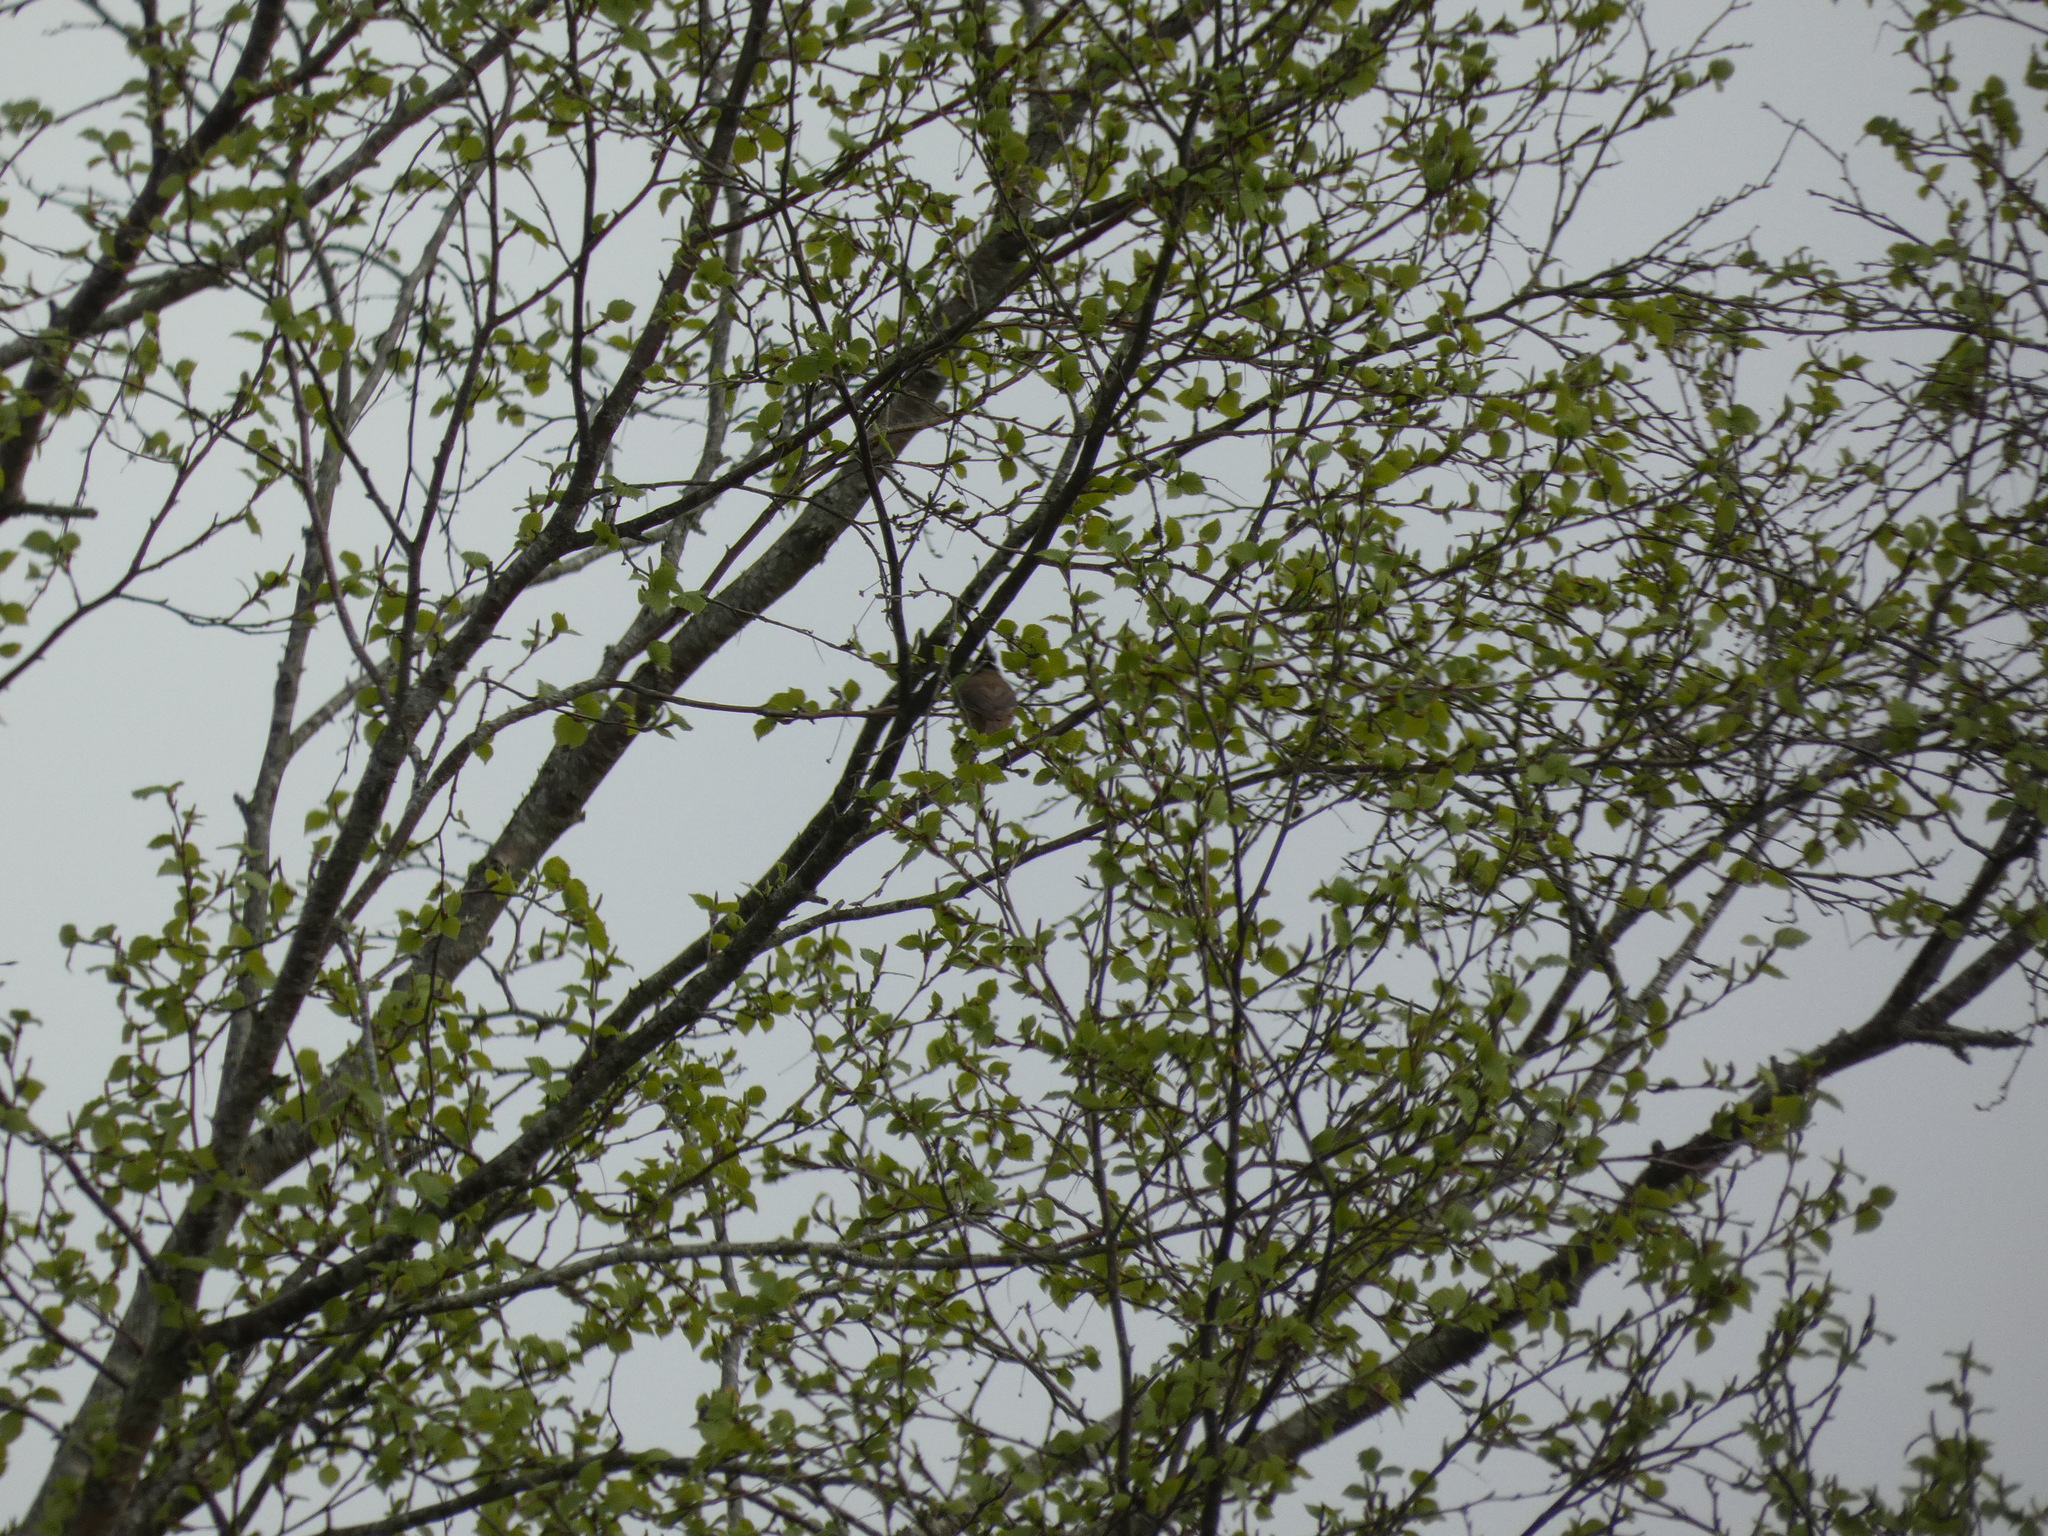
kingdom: Animalia
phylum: Chordata
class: Aves
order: Passeriformes
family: Paridae
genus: Lophophanes
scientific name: Lophophanes cristatus
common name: European crested tit
